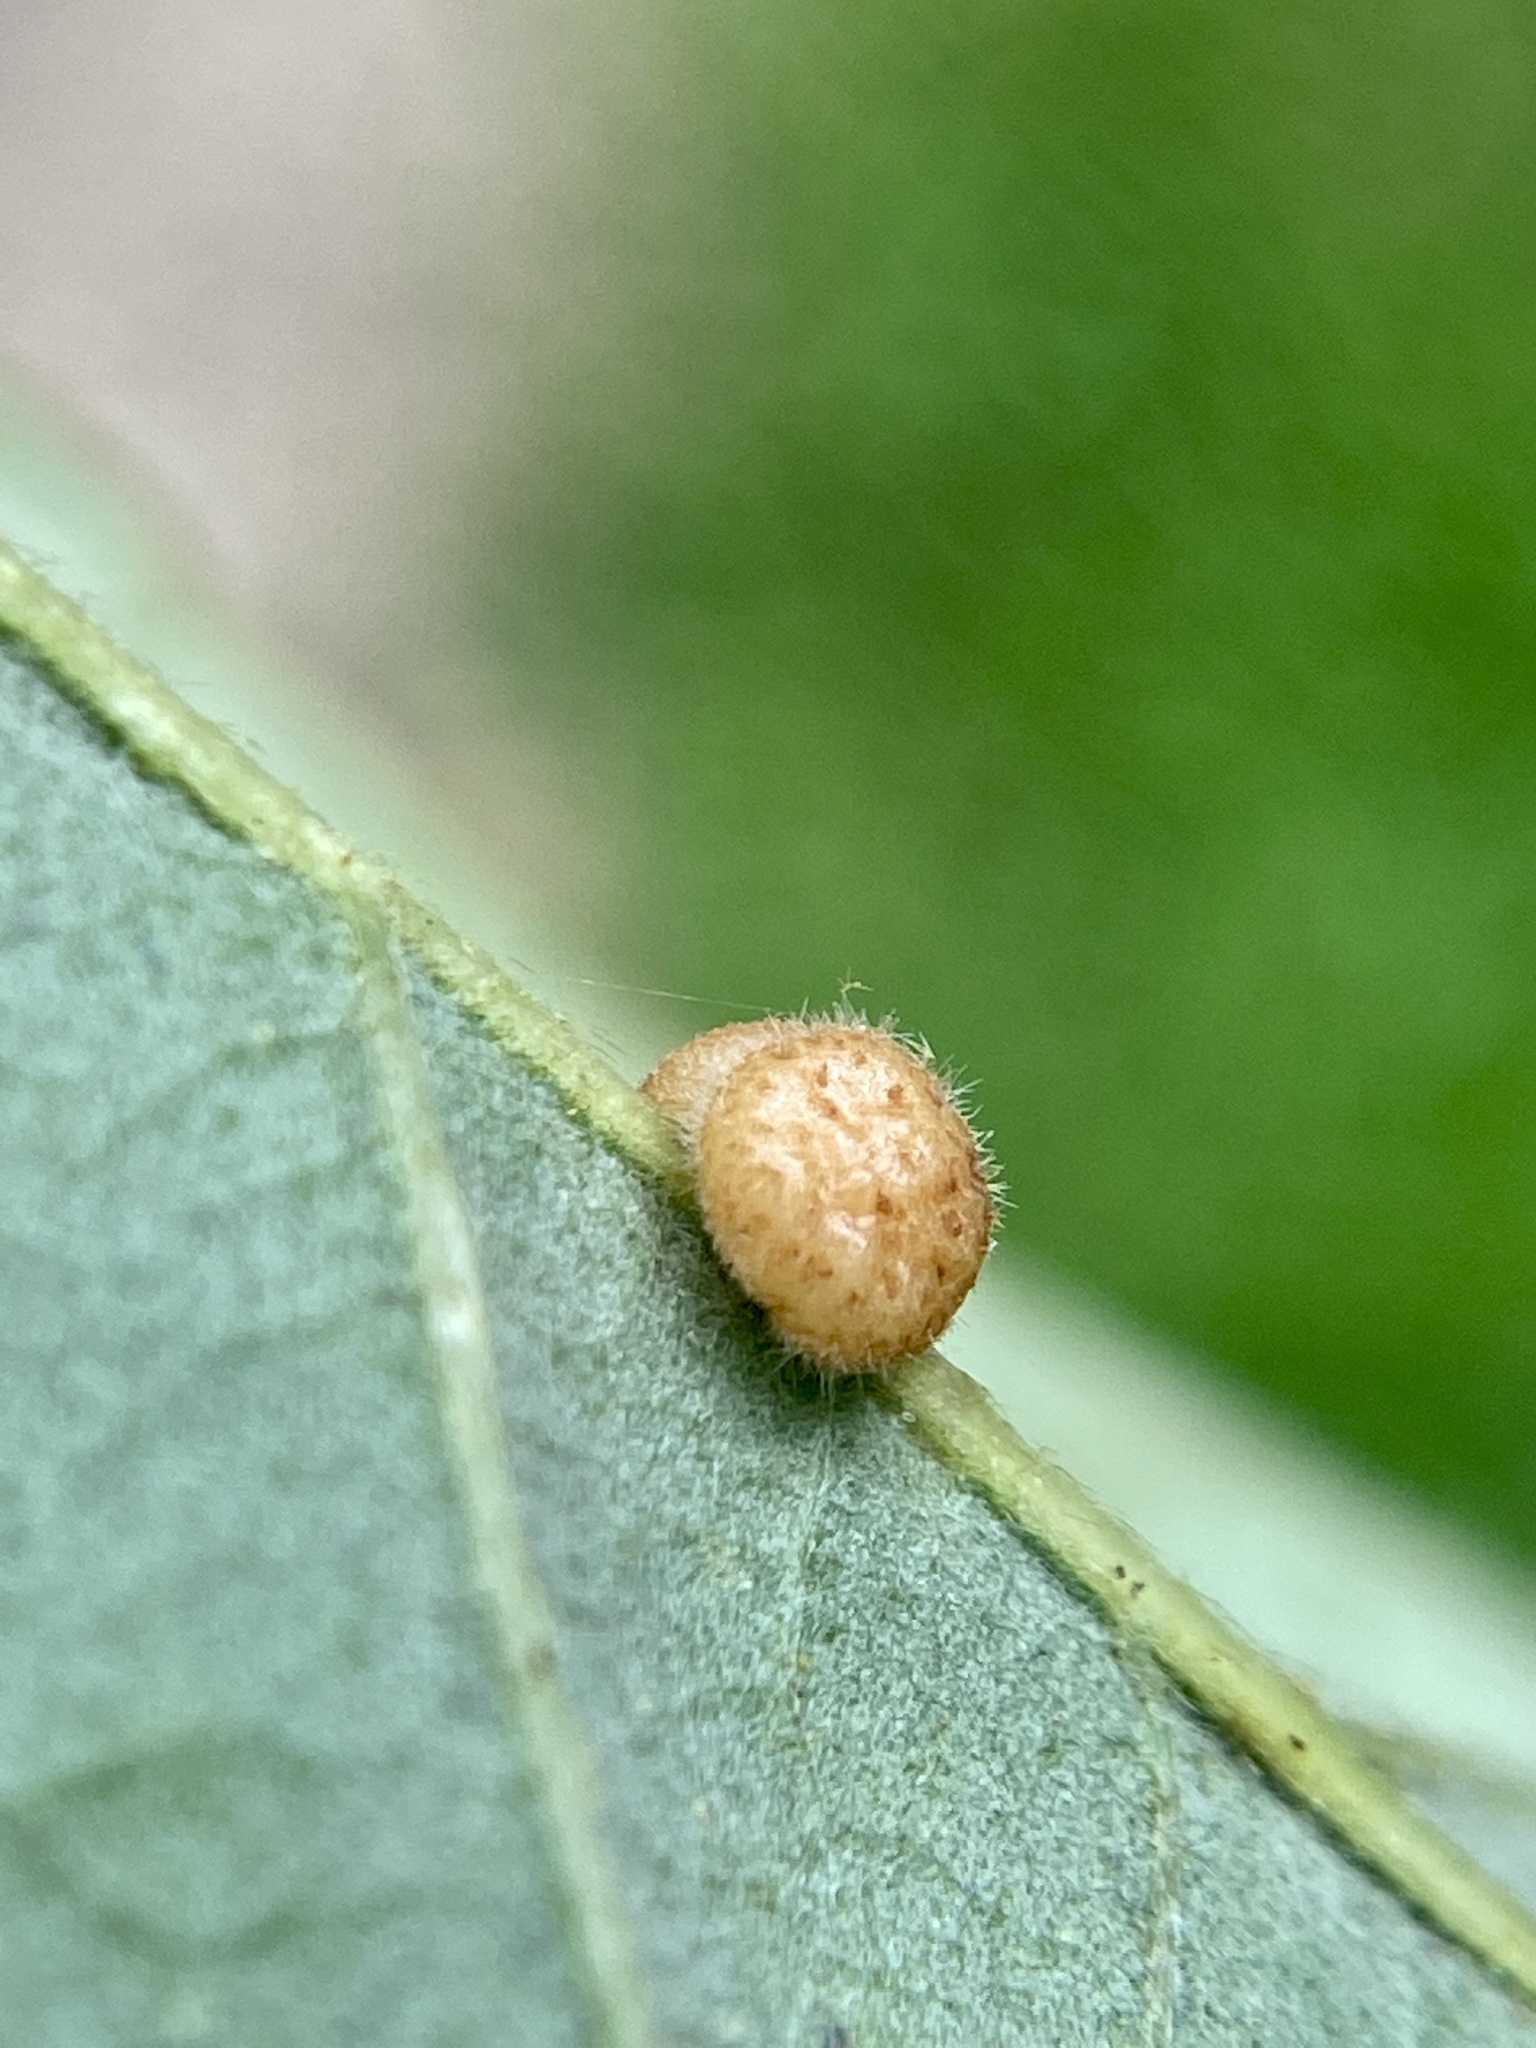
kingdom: Animalia
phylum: Arthropoda
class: Insecta
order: Hymenoptera
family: Cynipidae
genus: Andricus
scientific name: Andricus
